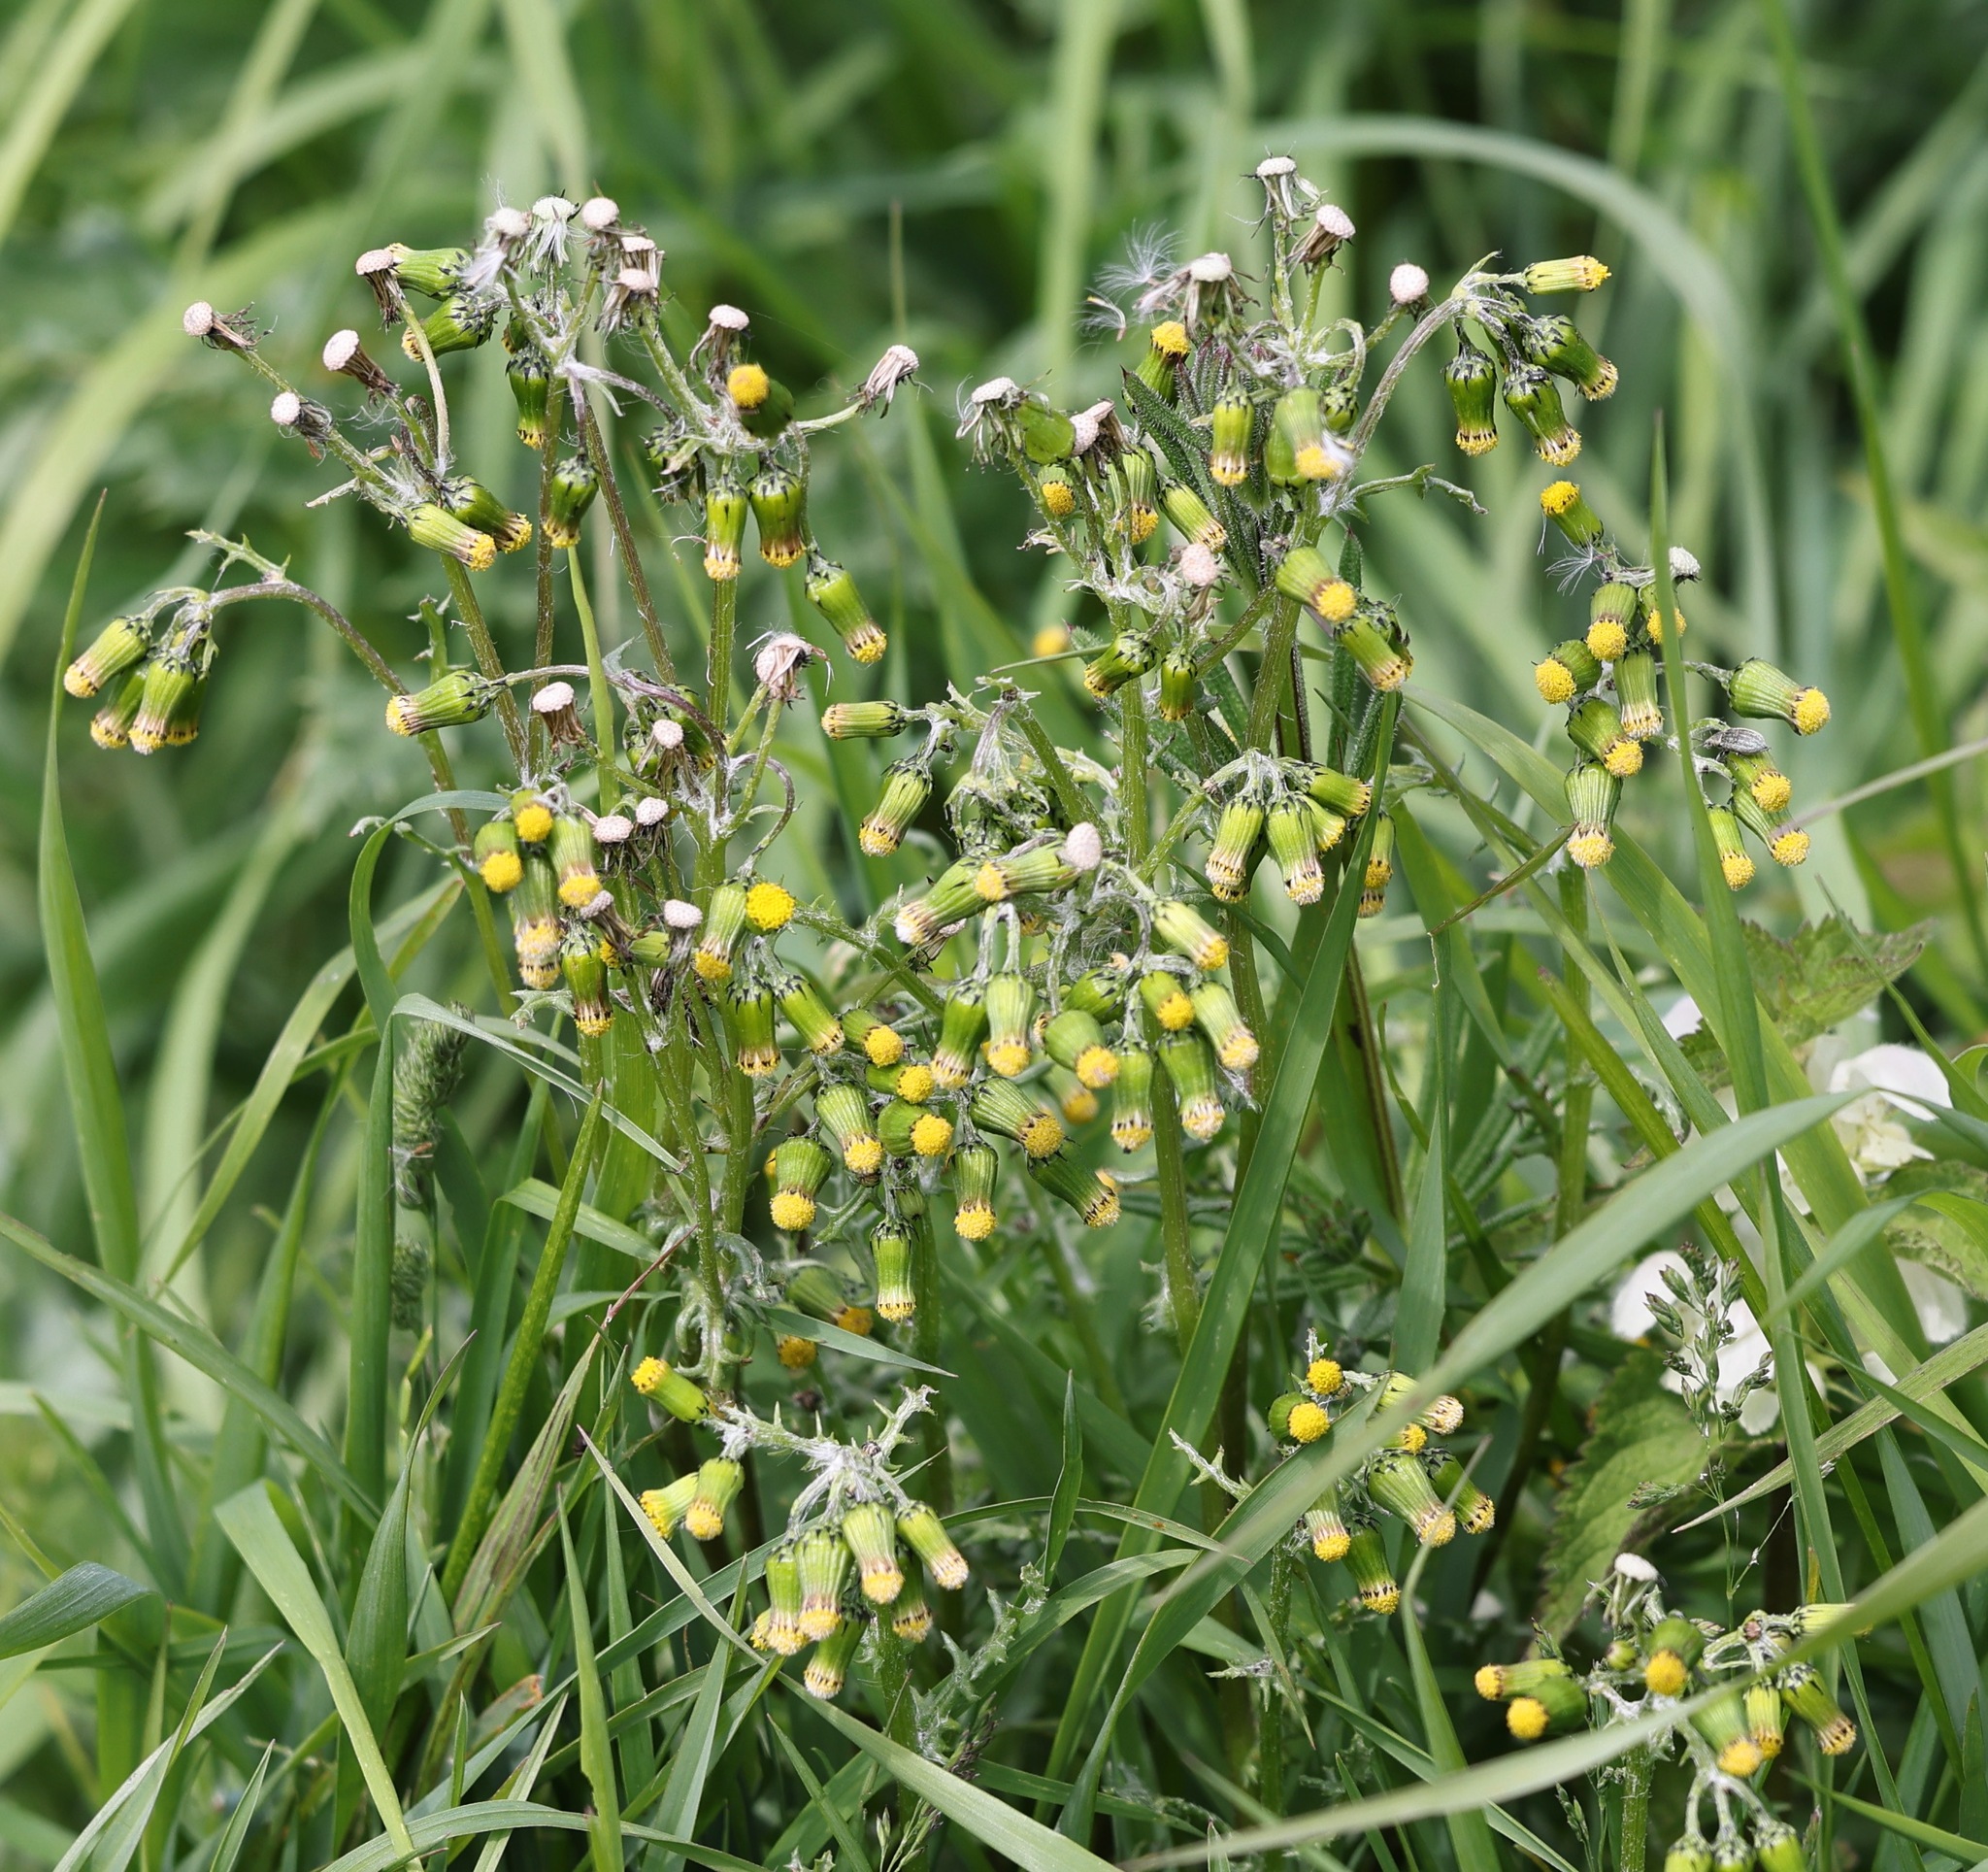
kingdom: Plantae
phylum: Tracheophyta
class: Magnoliopsida
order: Asterales
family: Asteraceae
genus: Senecio
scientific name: Senecio vulgaris
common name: Old-man-in-the-spring
